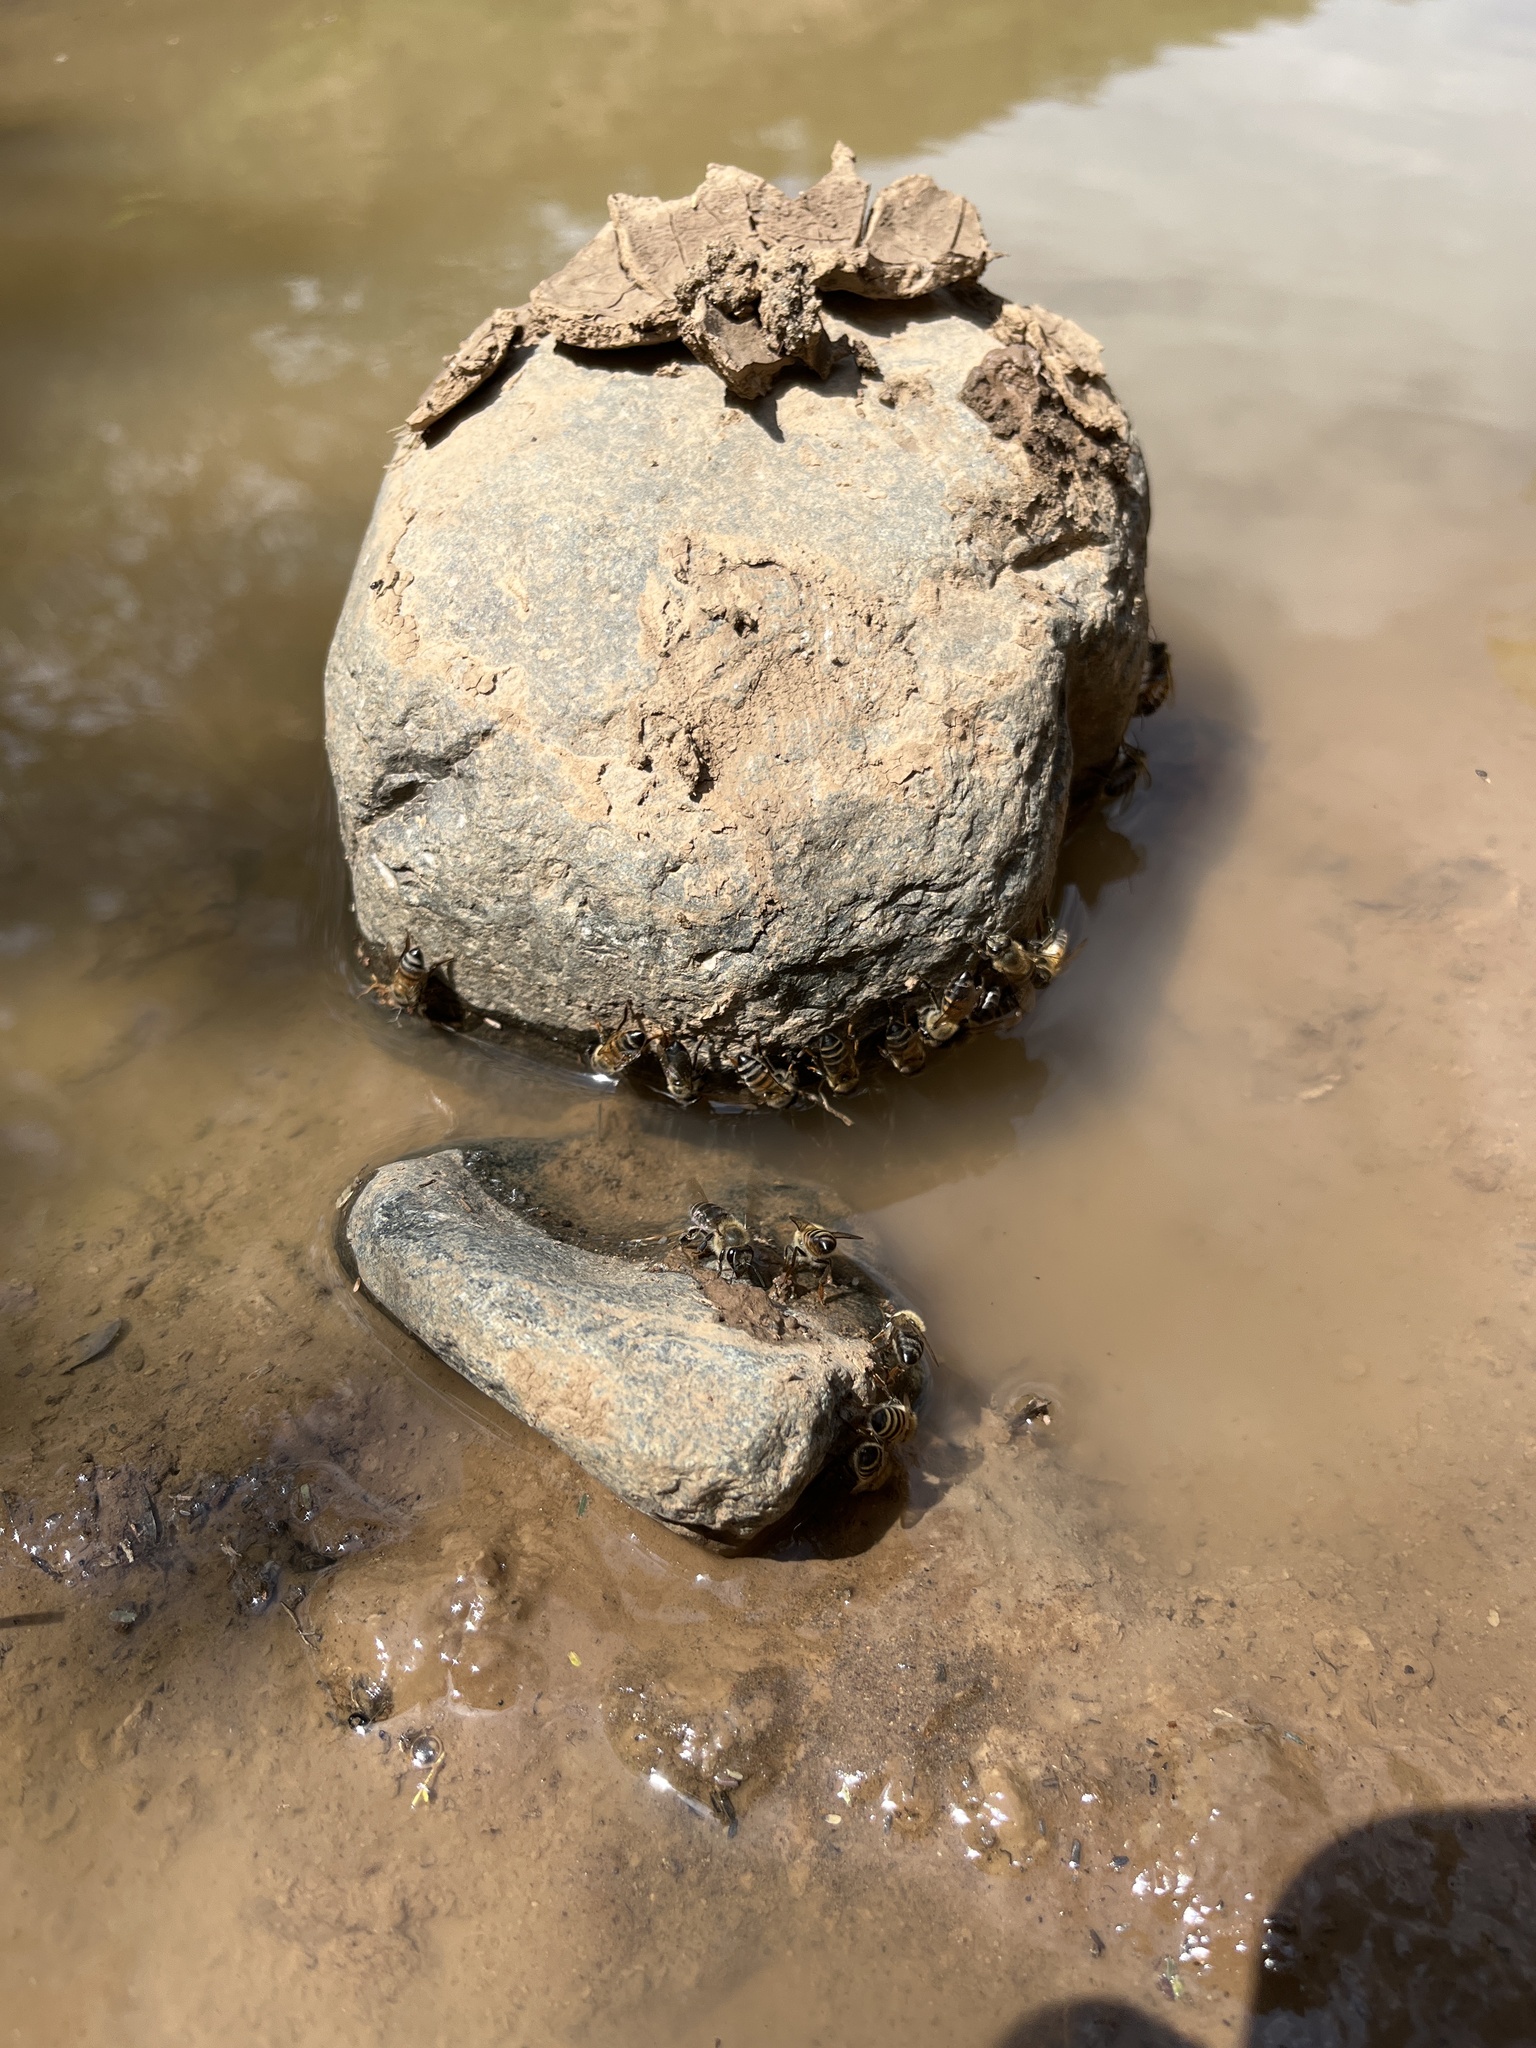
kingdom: Animalia
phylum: Arthropoda
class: Insecta
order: Hymenoptera
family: Apidae
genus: Apis
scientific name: Apis mellifera
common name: Honey bee
